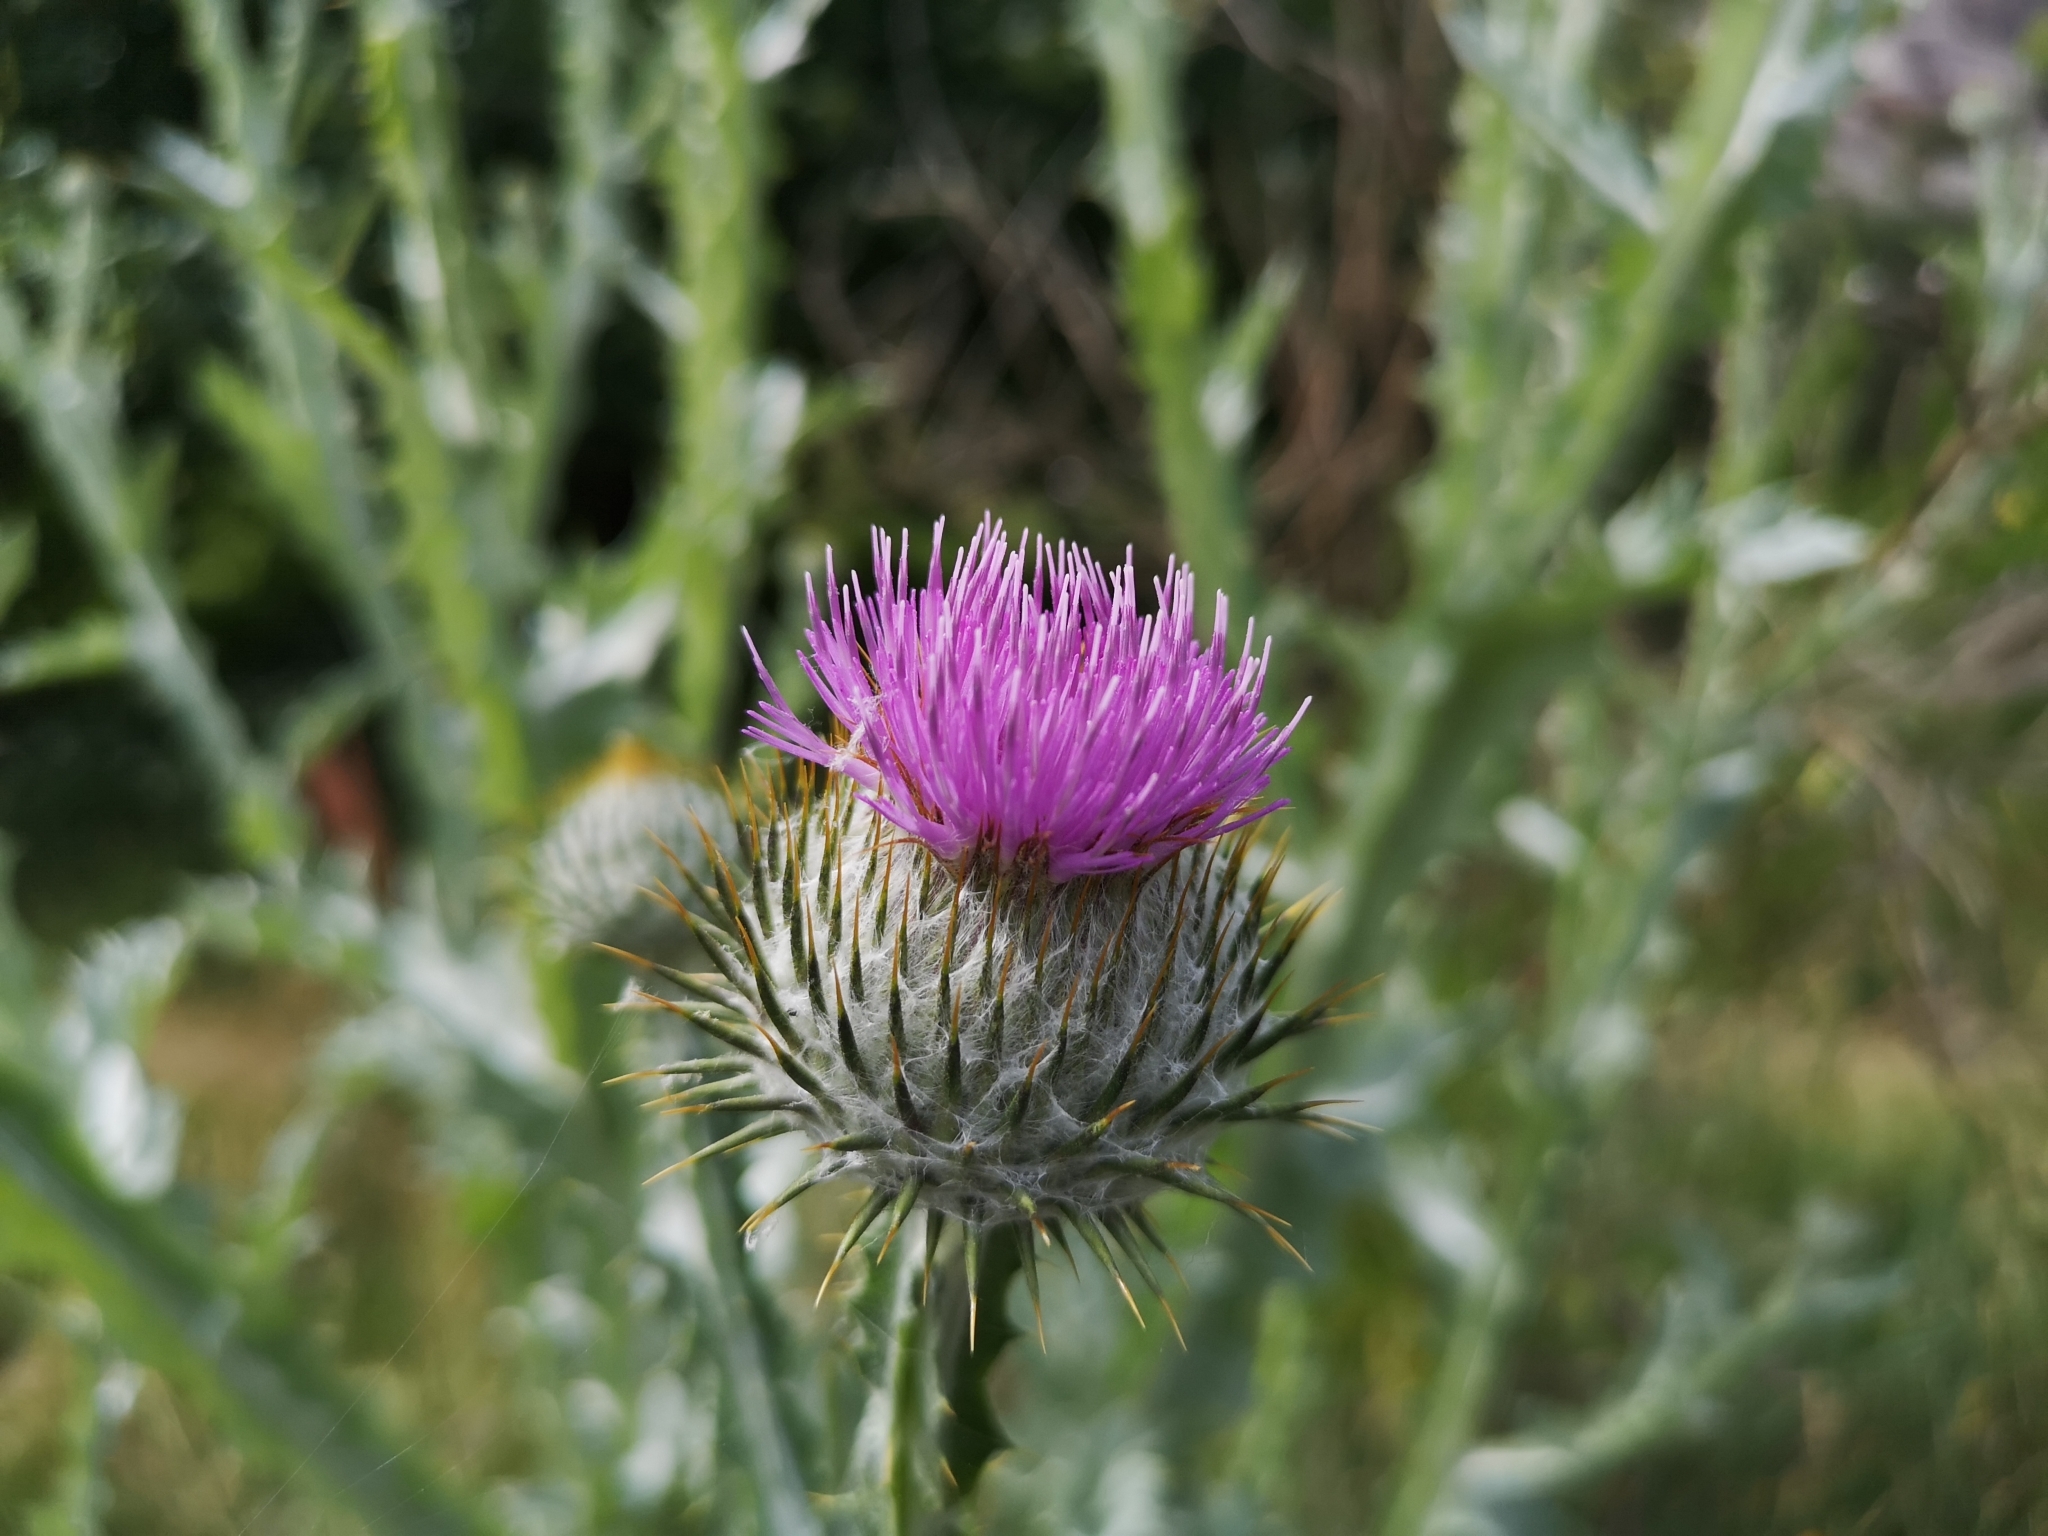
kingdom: Plantae
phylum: Tracheophyta
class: Magnoliopsida
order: Asterales
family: Asteraceae
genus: Onopordum
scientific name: Onopordum acanthium
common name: Scotch thistle
